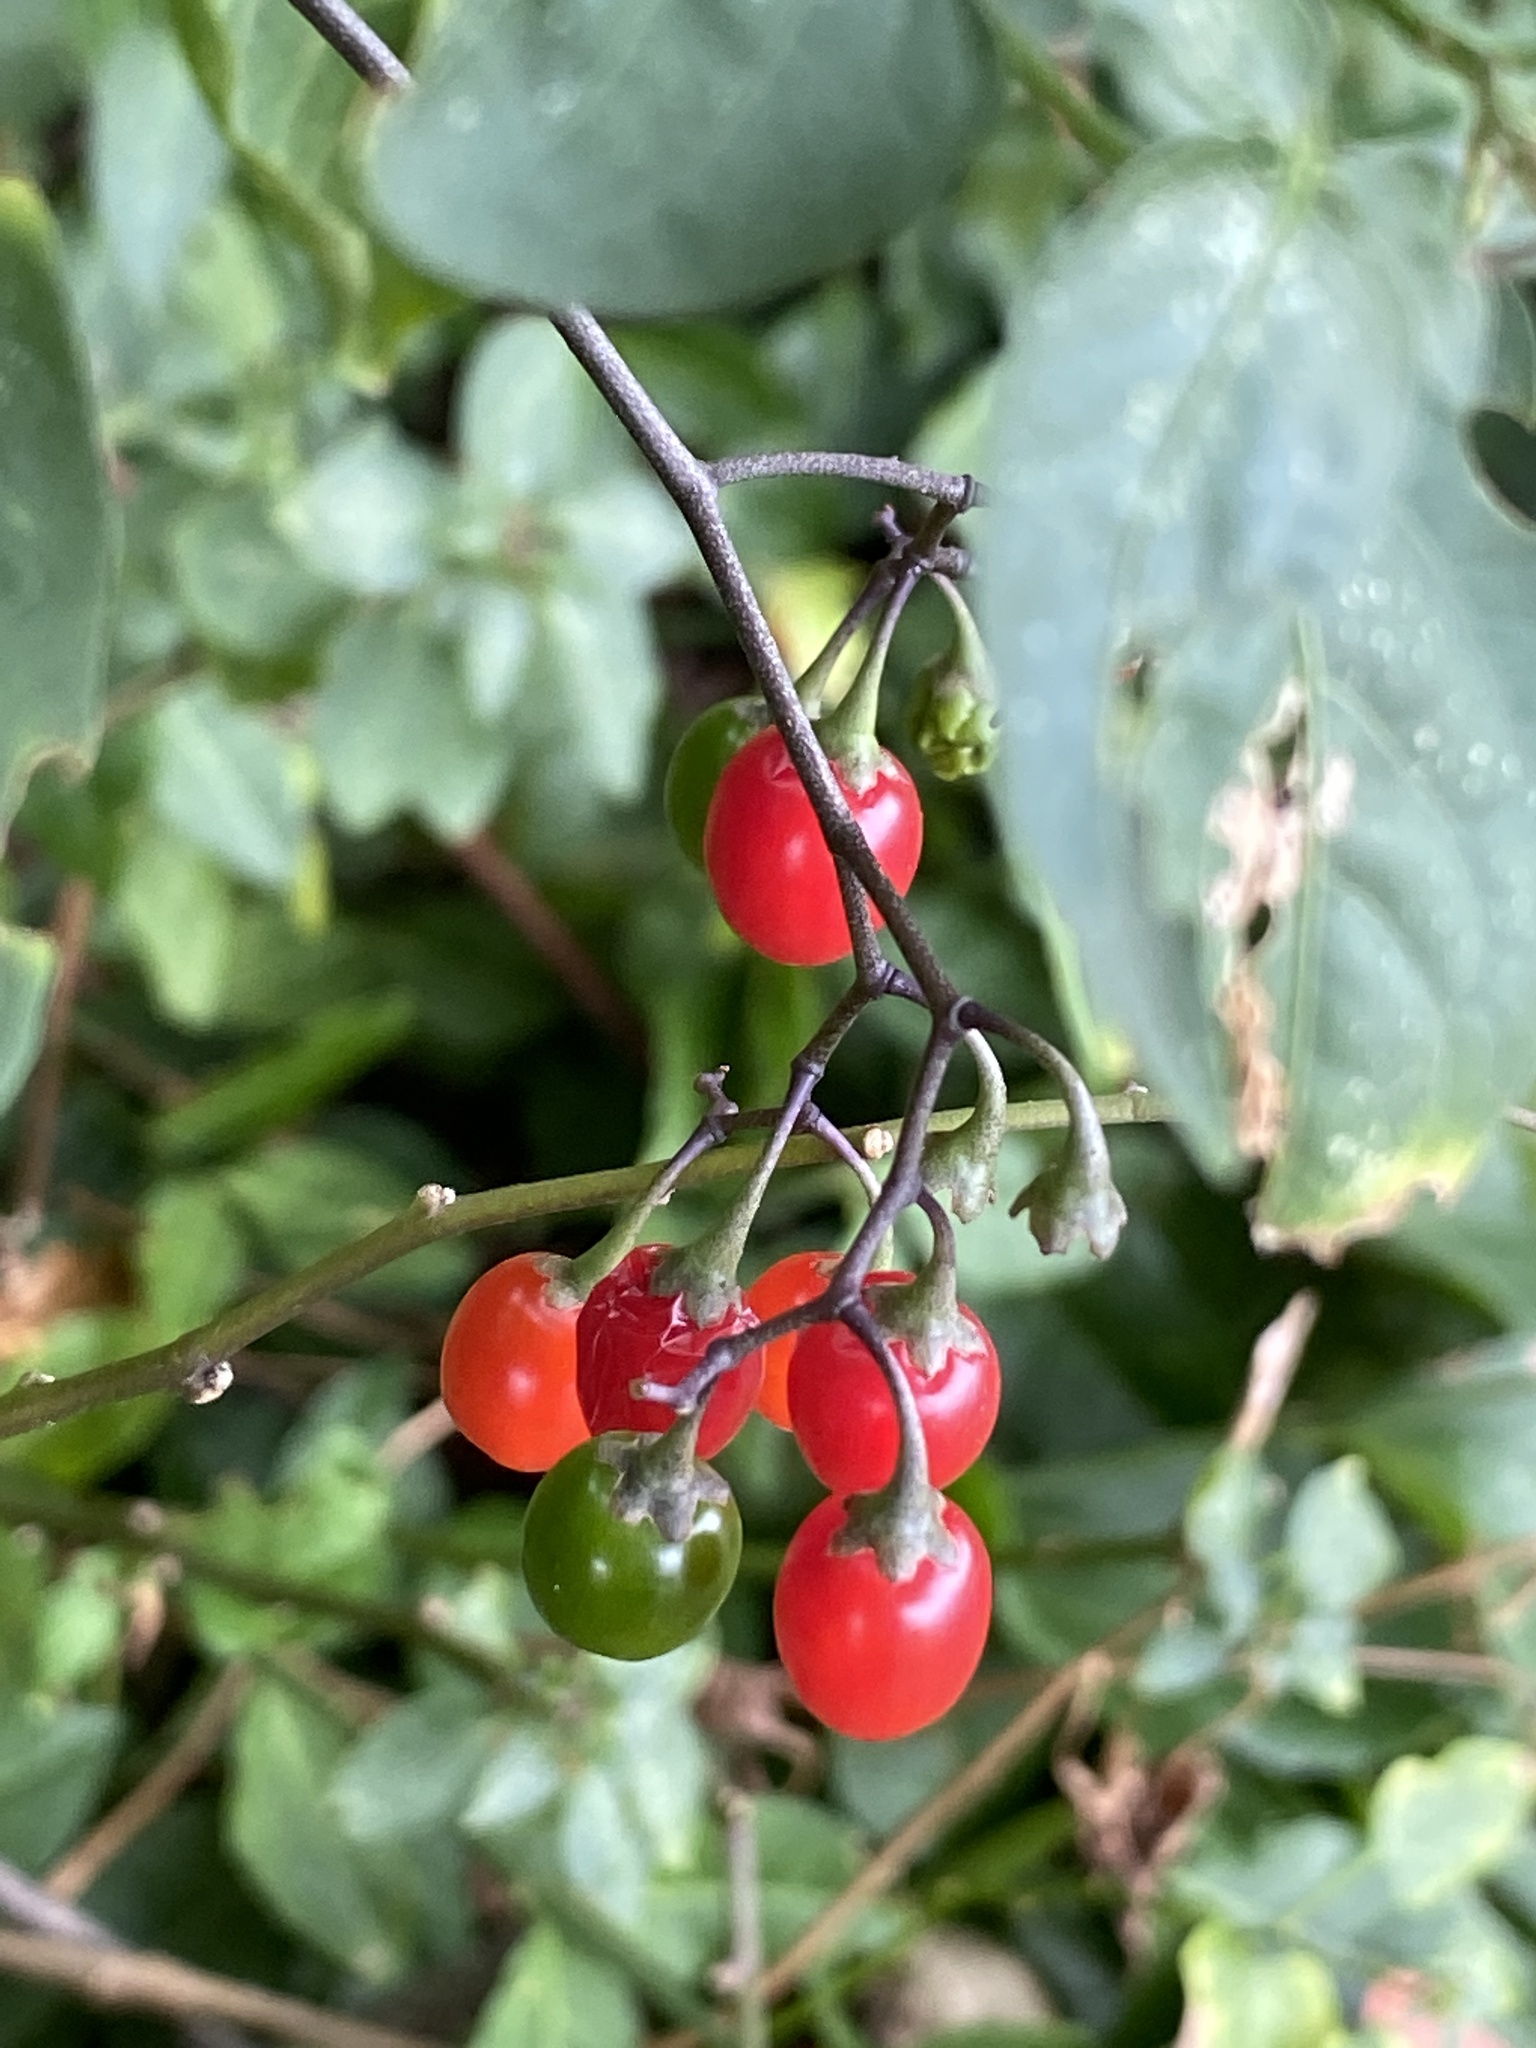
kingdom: Plantae
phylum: Tracheophyta
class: Magnoliopsida
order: Solanales
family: Solanaceae
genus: Solanum
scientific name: Solanum dulcamara
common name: Climbing nightshade
